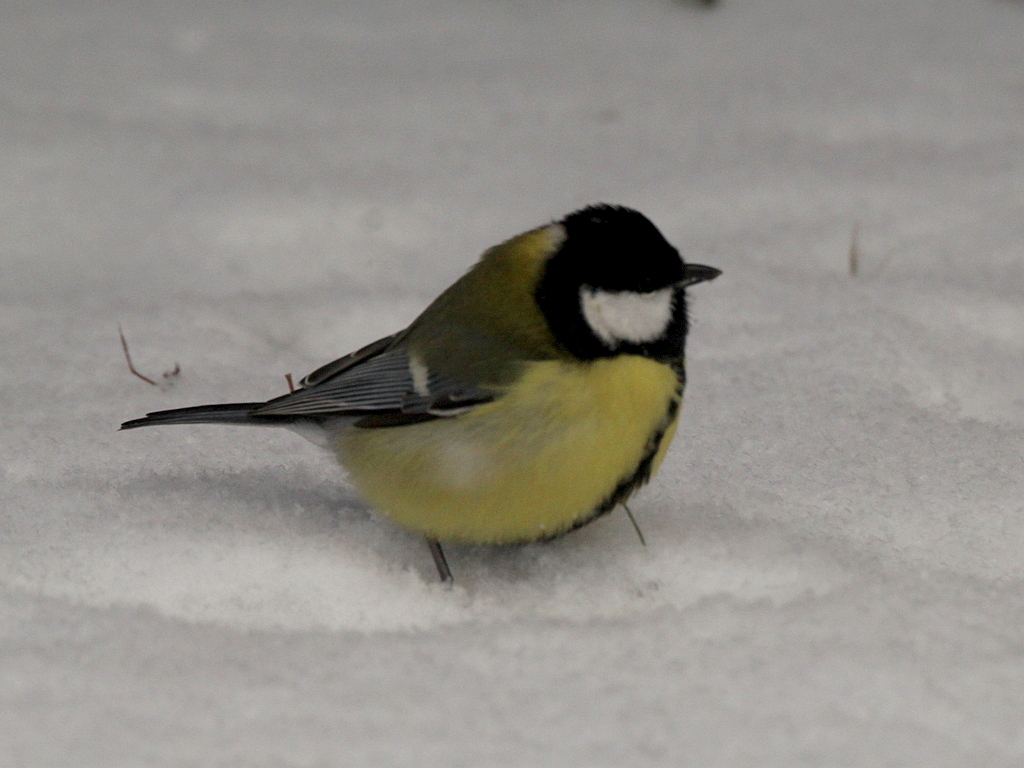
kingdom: Animalia
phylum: Chordata
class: Aves
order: Passeriformes
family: Paridae
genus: Parus
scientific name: Parus major
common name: Great tit
